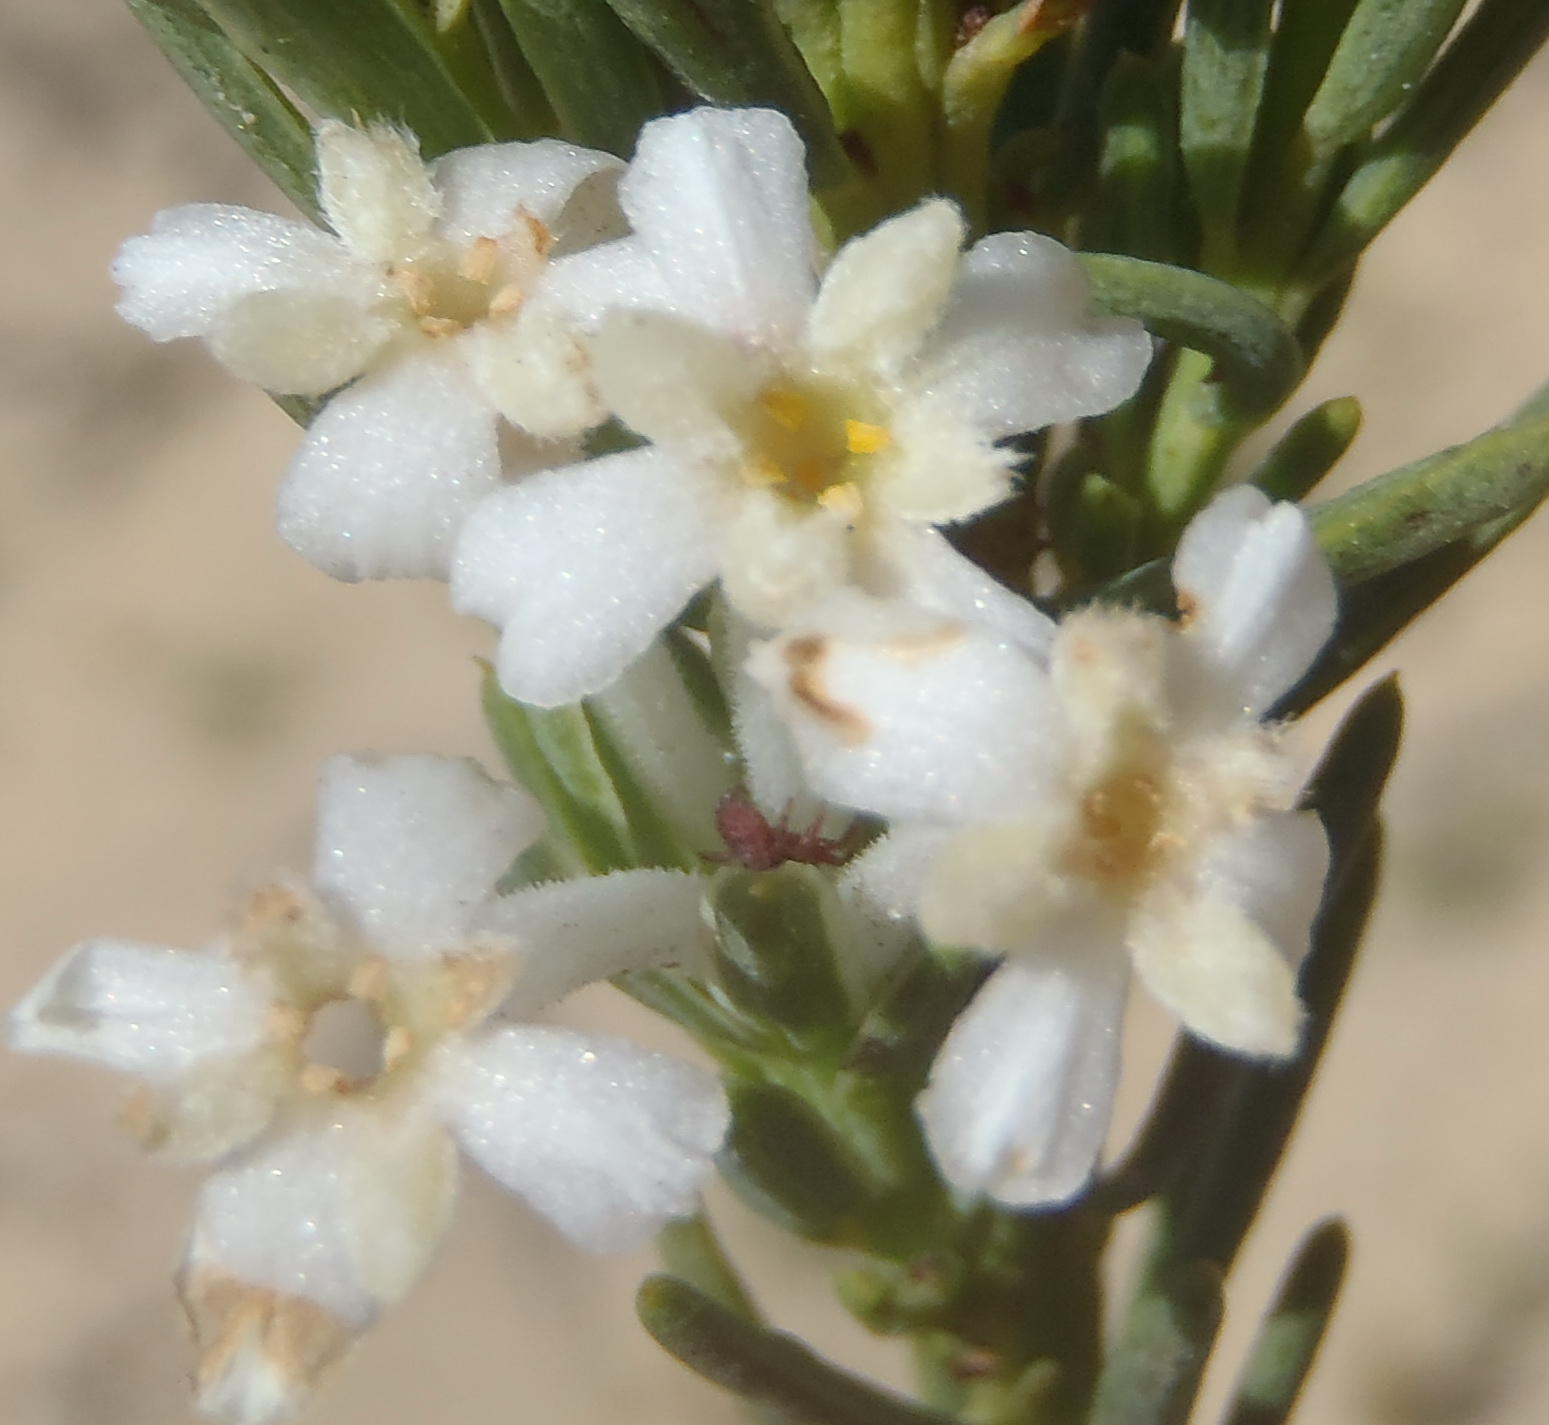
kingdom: Plantae
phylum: Tracheophyta
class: Magnoliopsida
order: Malvales
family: Thymelaeaceae
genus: Gnidia
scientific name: Gnidia pinifolia
